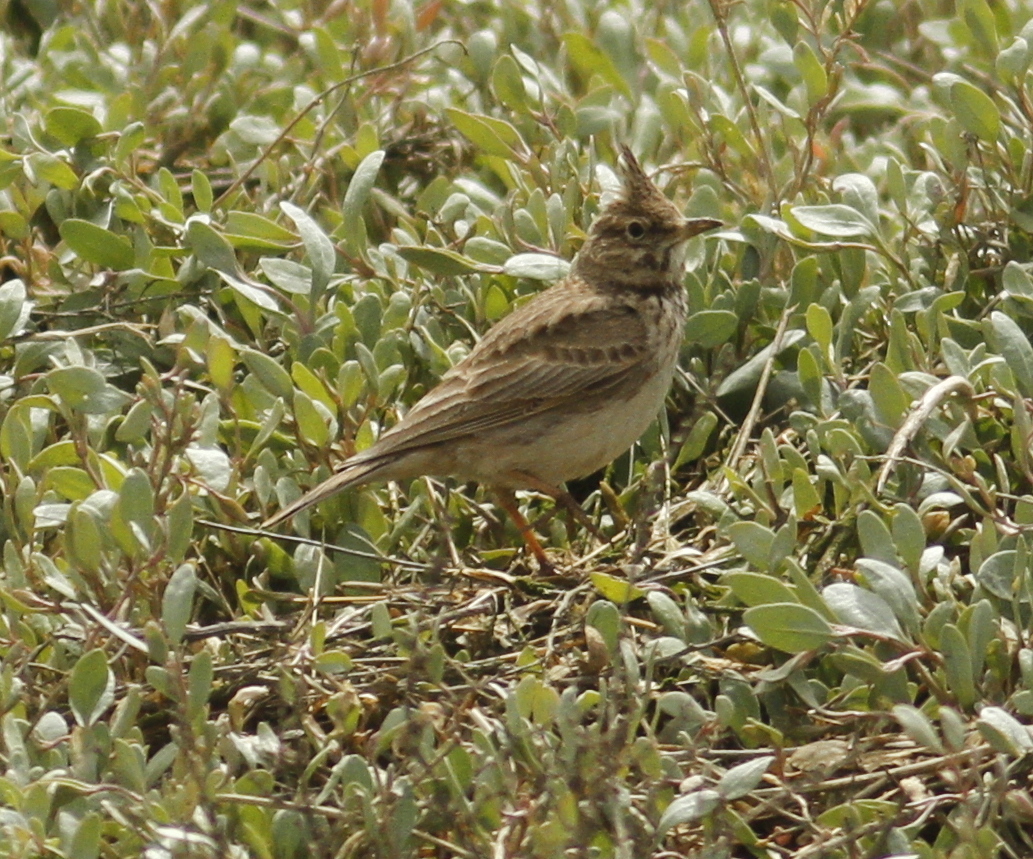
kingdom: Animalia
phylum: Chordata
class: Aves
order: Passeriformes
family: Alaudidae
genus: Galerida
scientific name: Galerida cristata
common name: Crested lark
